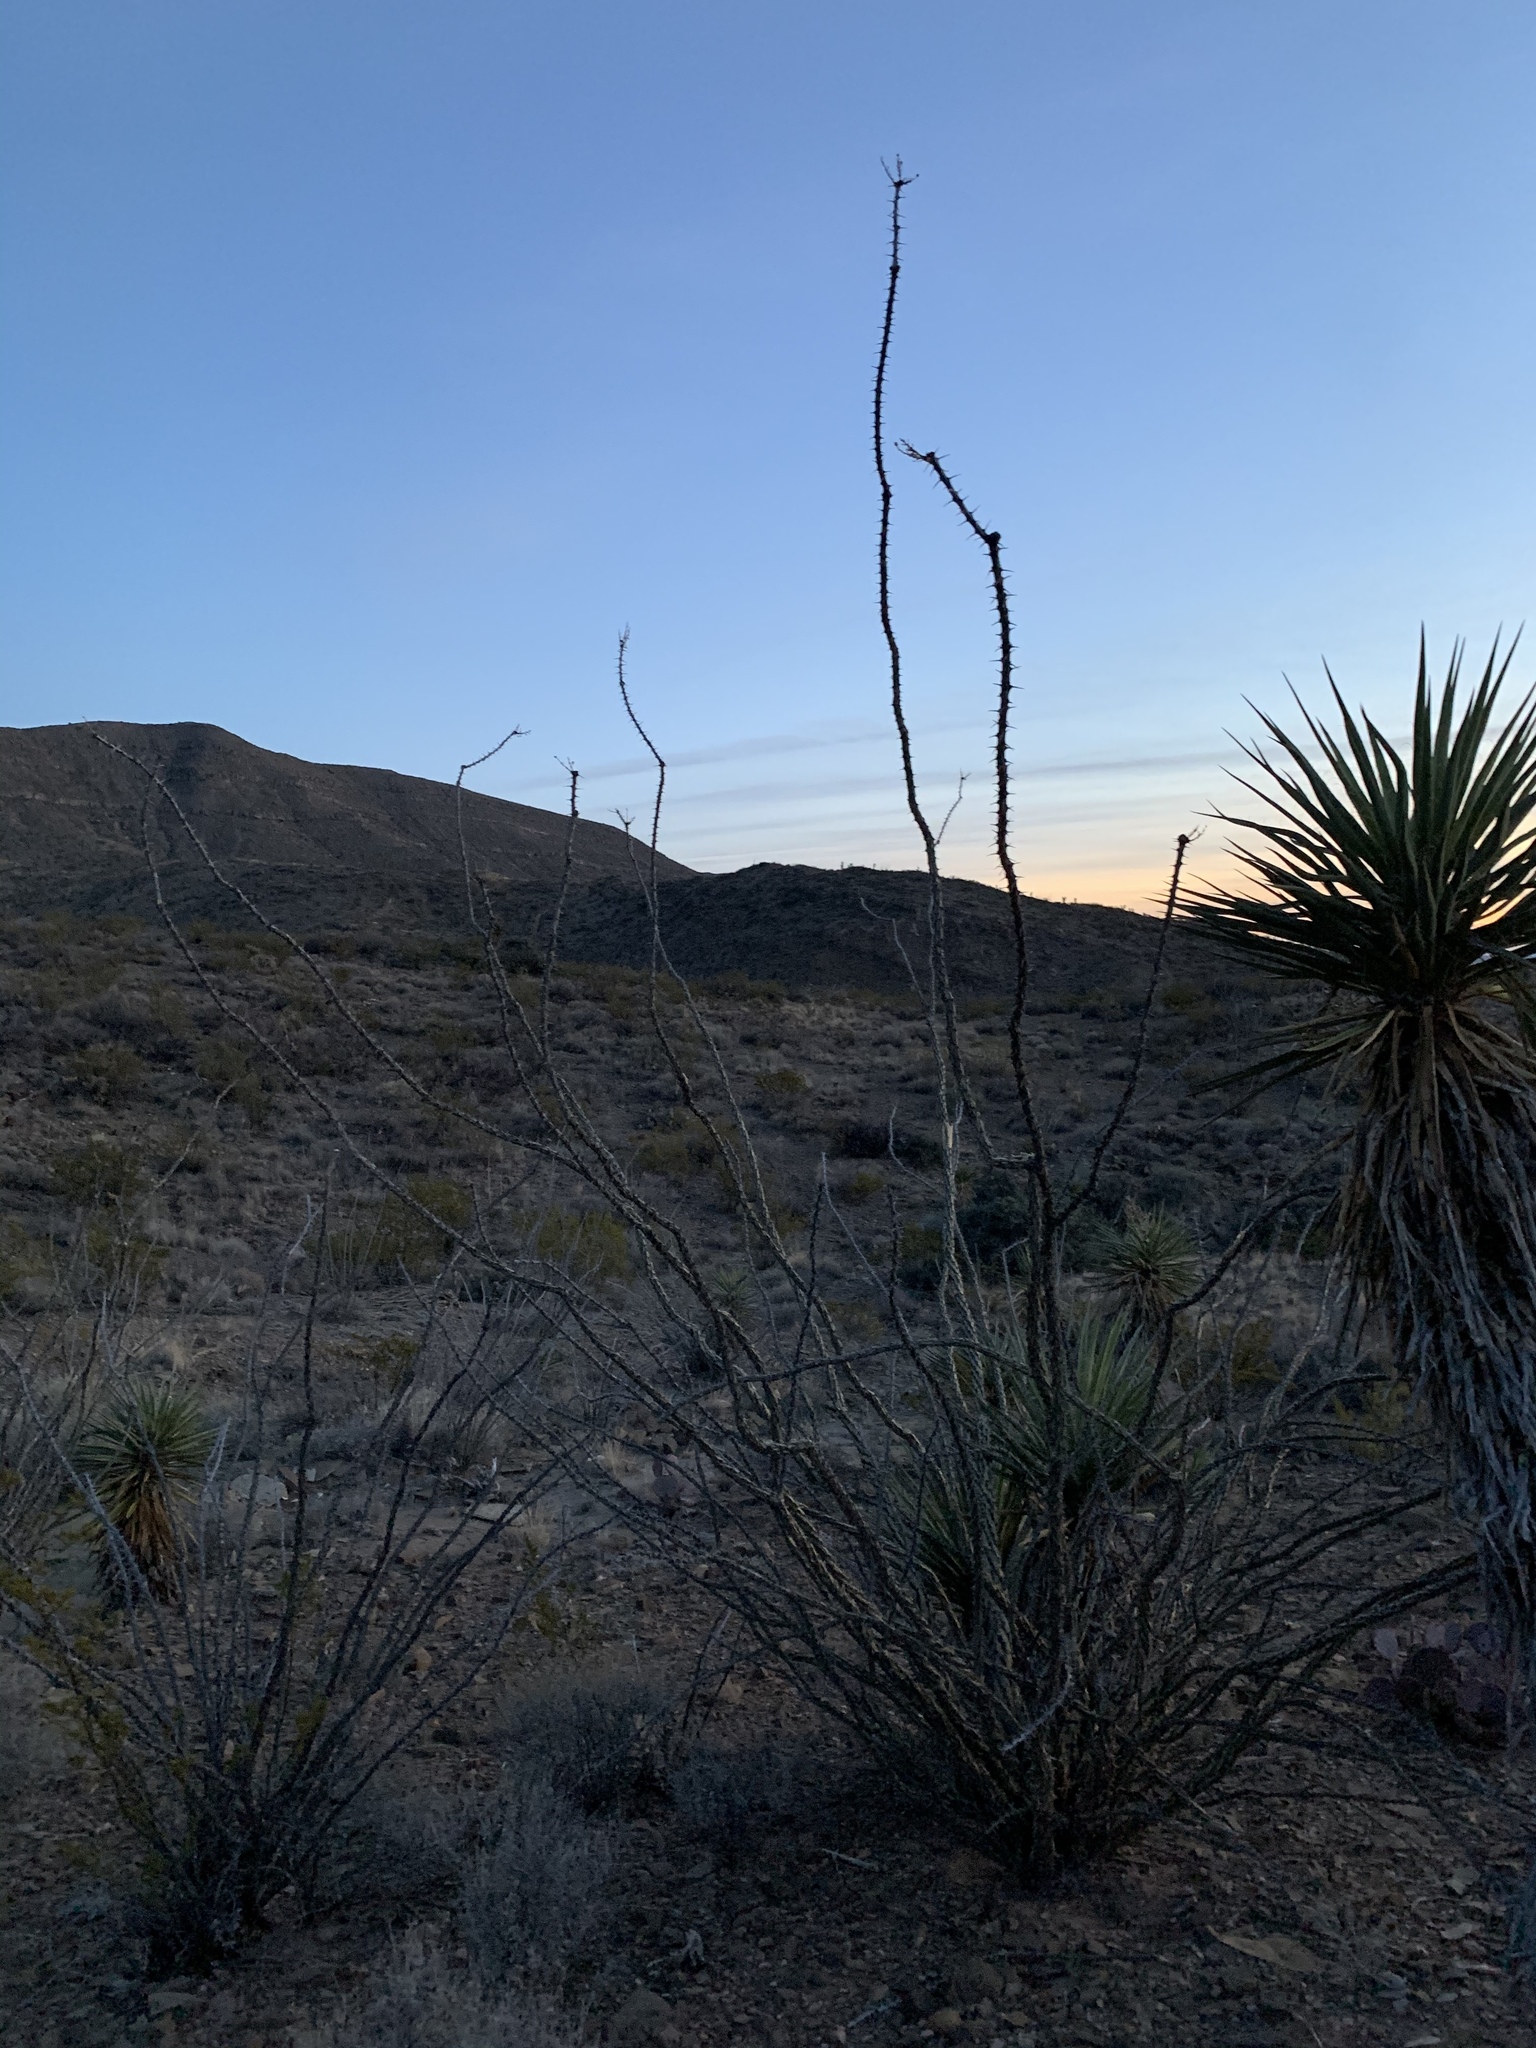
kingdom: Plantae
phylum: Tracheophyta
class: Magnoliopsida
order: Ericales
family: Fouquieriaceae
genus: Fouquieria
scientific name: Fouquieria splendens
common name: Vine-cactus
